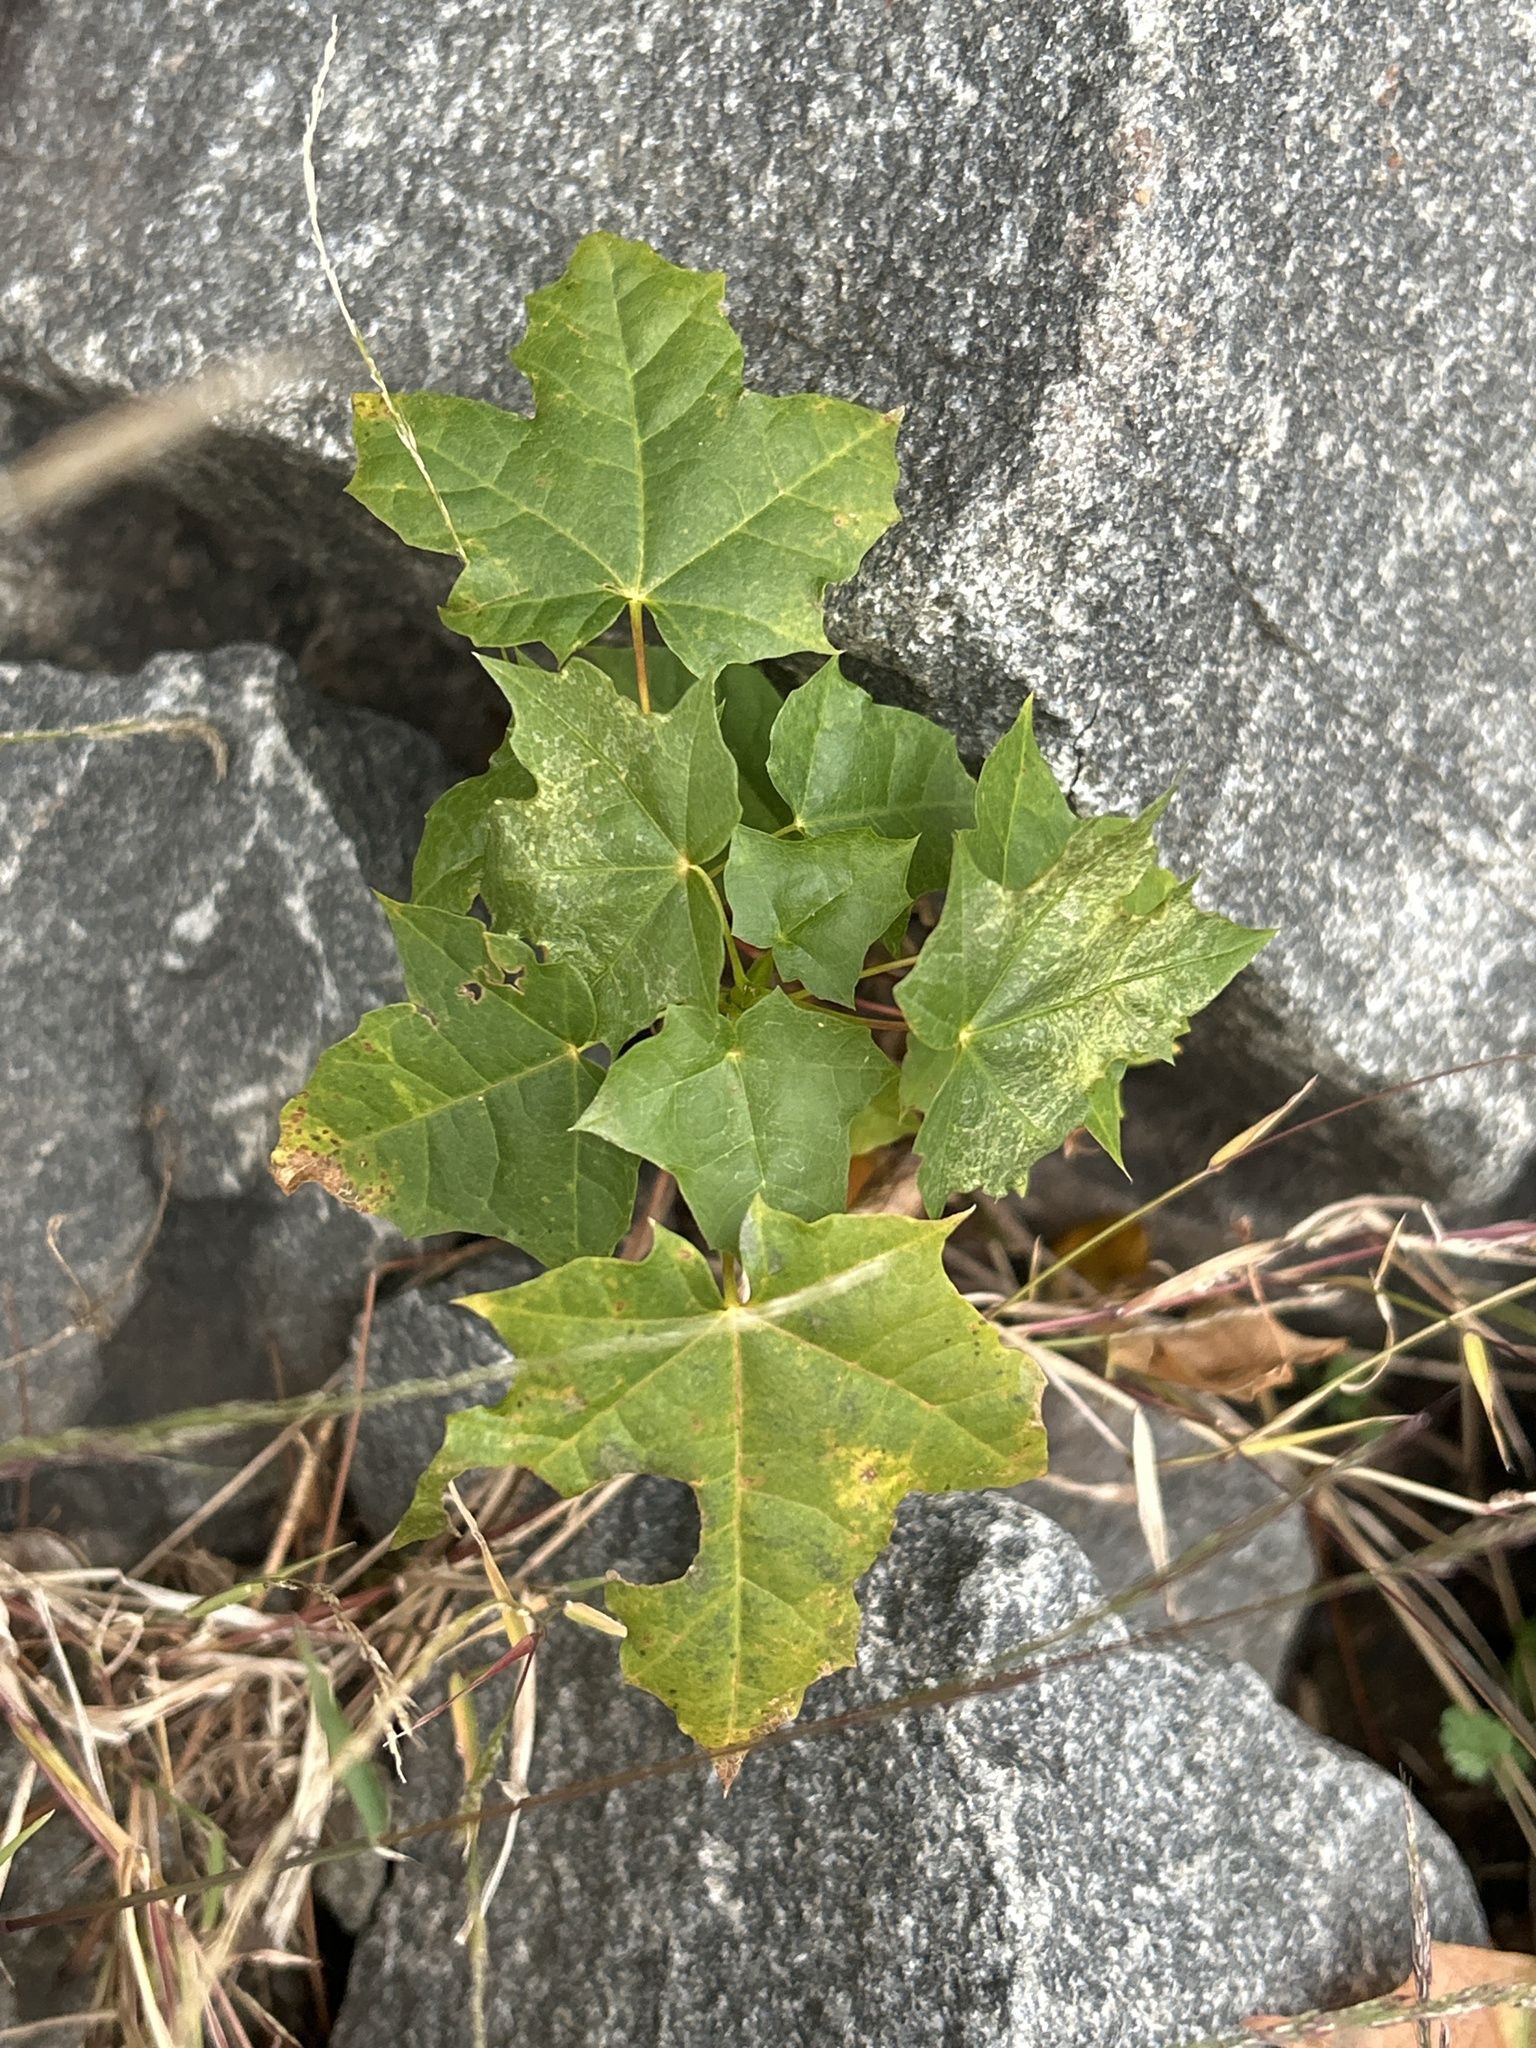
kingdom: Plantae
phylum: Tracheophyta
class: Magnoliopsida
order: Sapindales
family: Sapindaceae
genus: Acer
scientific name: Acer platanoides
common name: Norway maple
